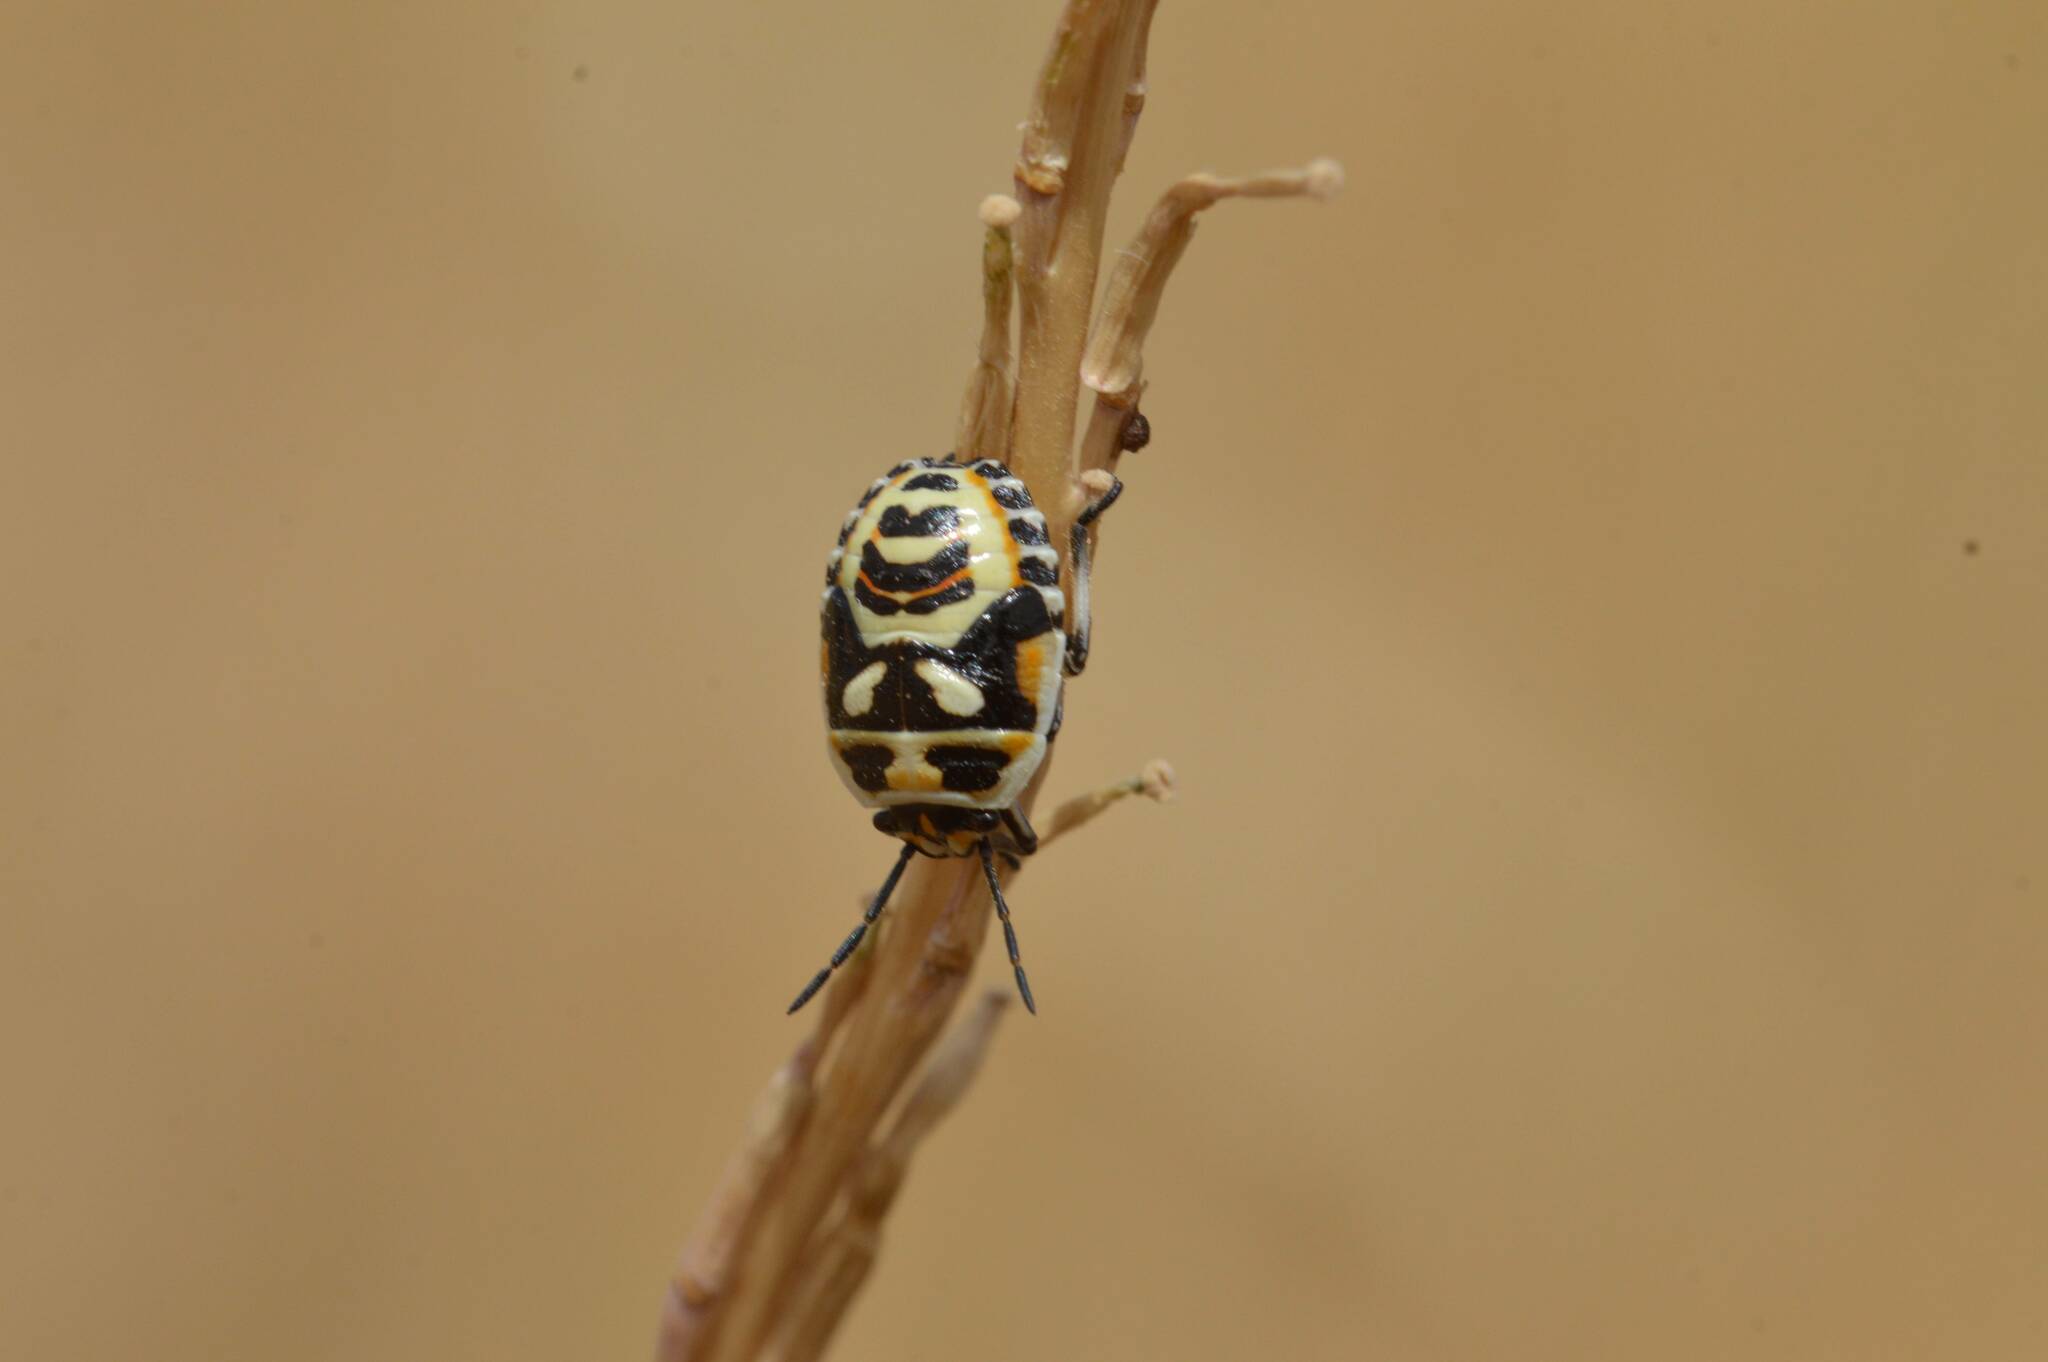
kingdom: Animalia
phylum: Arthropoda
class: Insecta
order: Hemiptera
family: Pentatomidae
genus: Eurydema
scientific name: Eurydema ornata
